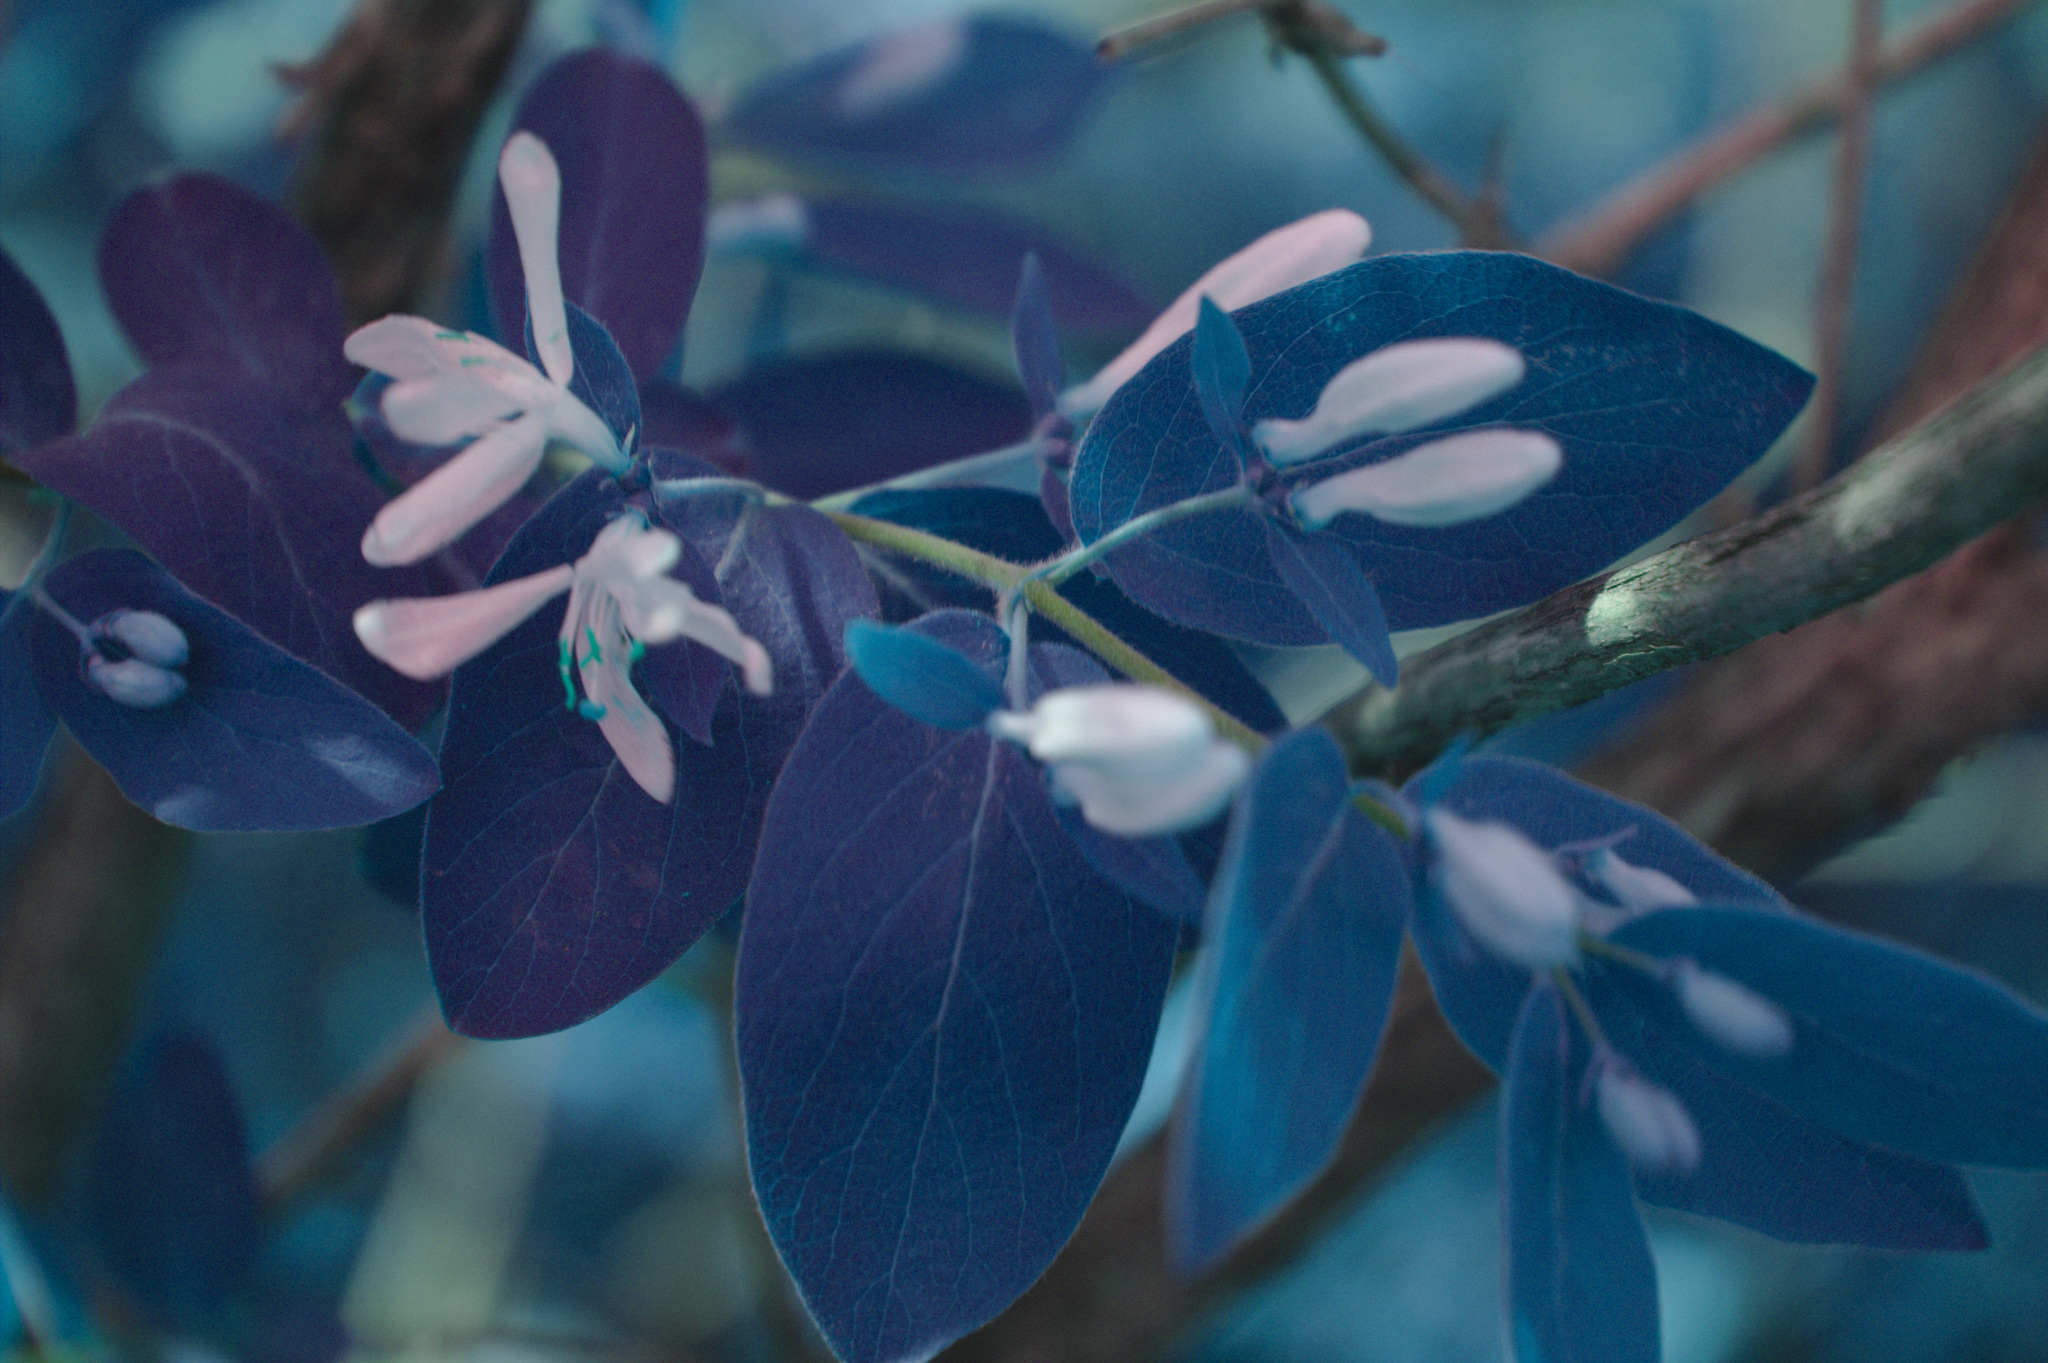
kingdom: Plantae
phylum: Tracheophyta
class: Magnoliopsida
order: Dipsacales
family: Caprifoliaceae
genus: Lonicera
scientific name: Lonicera morrowii
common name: Morrow's honeysuckle
